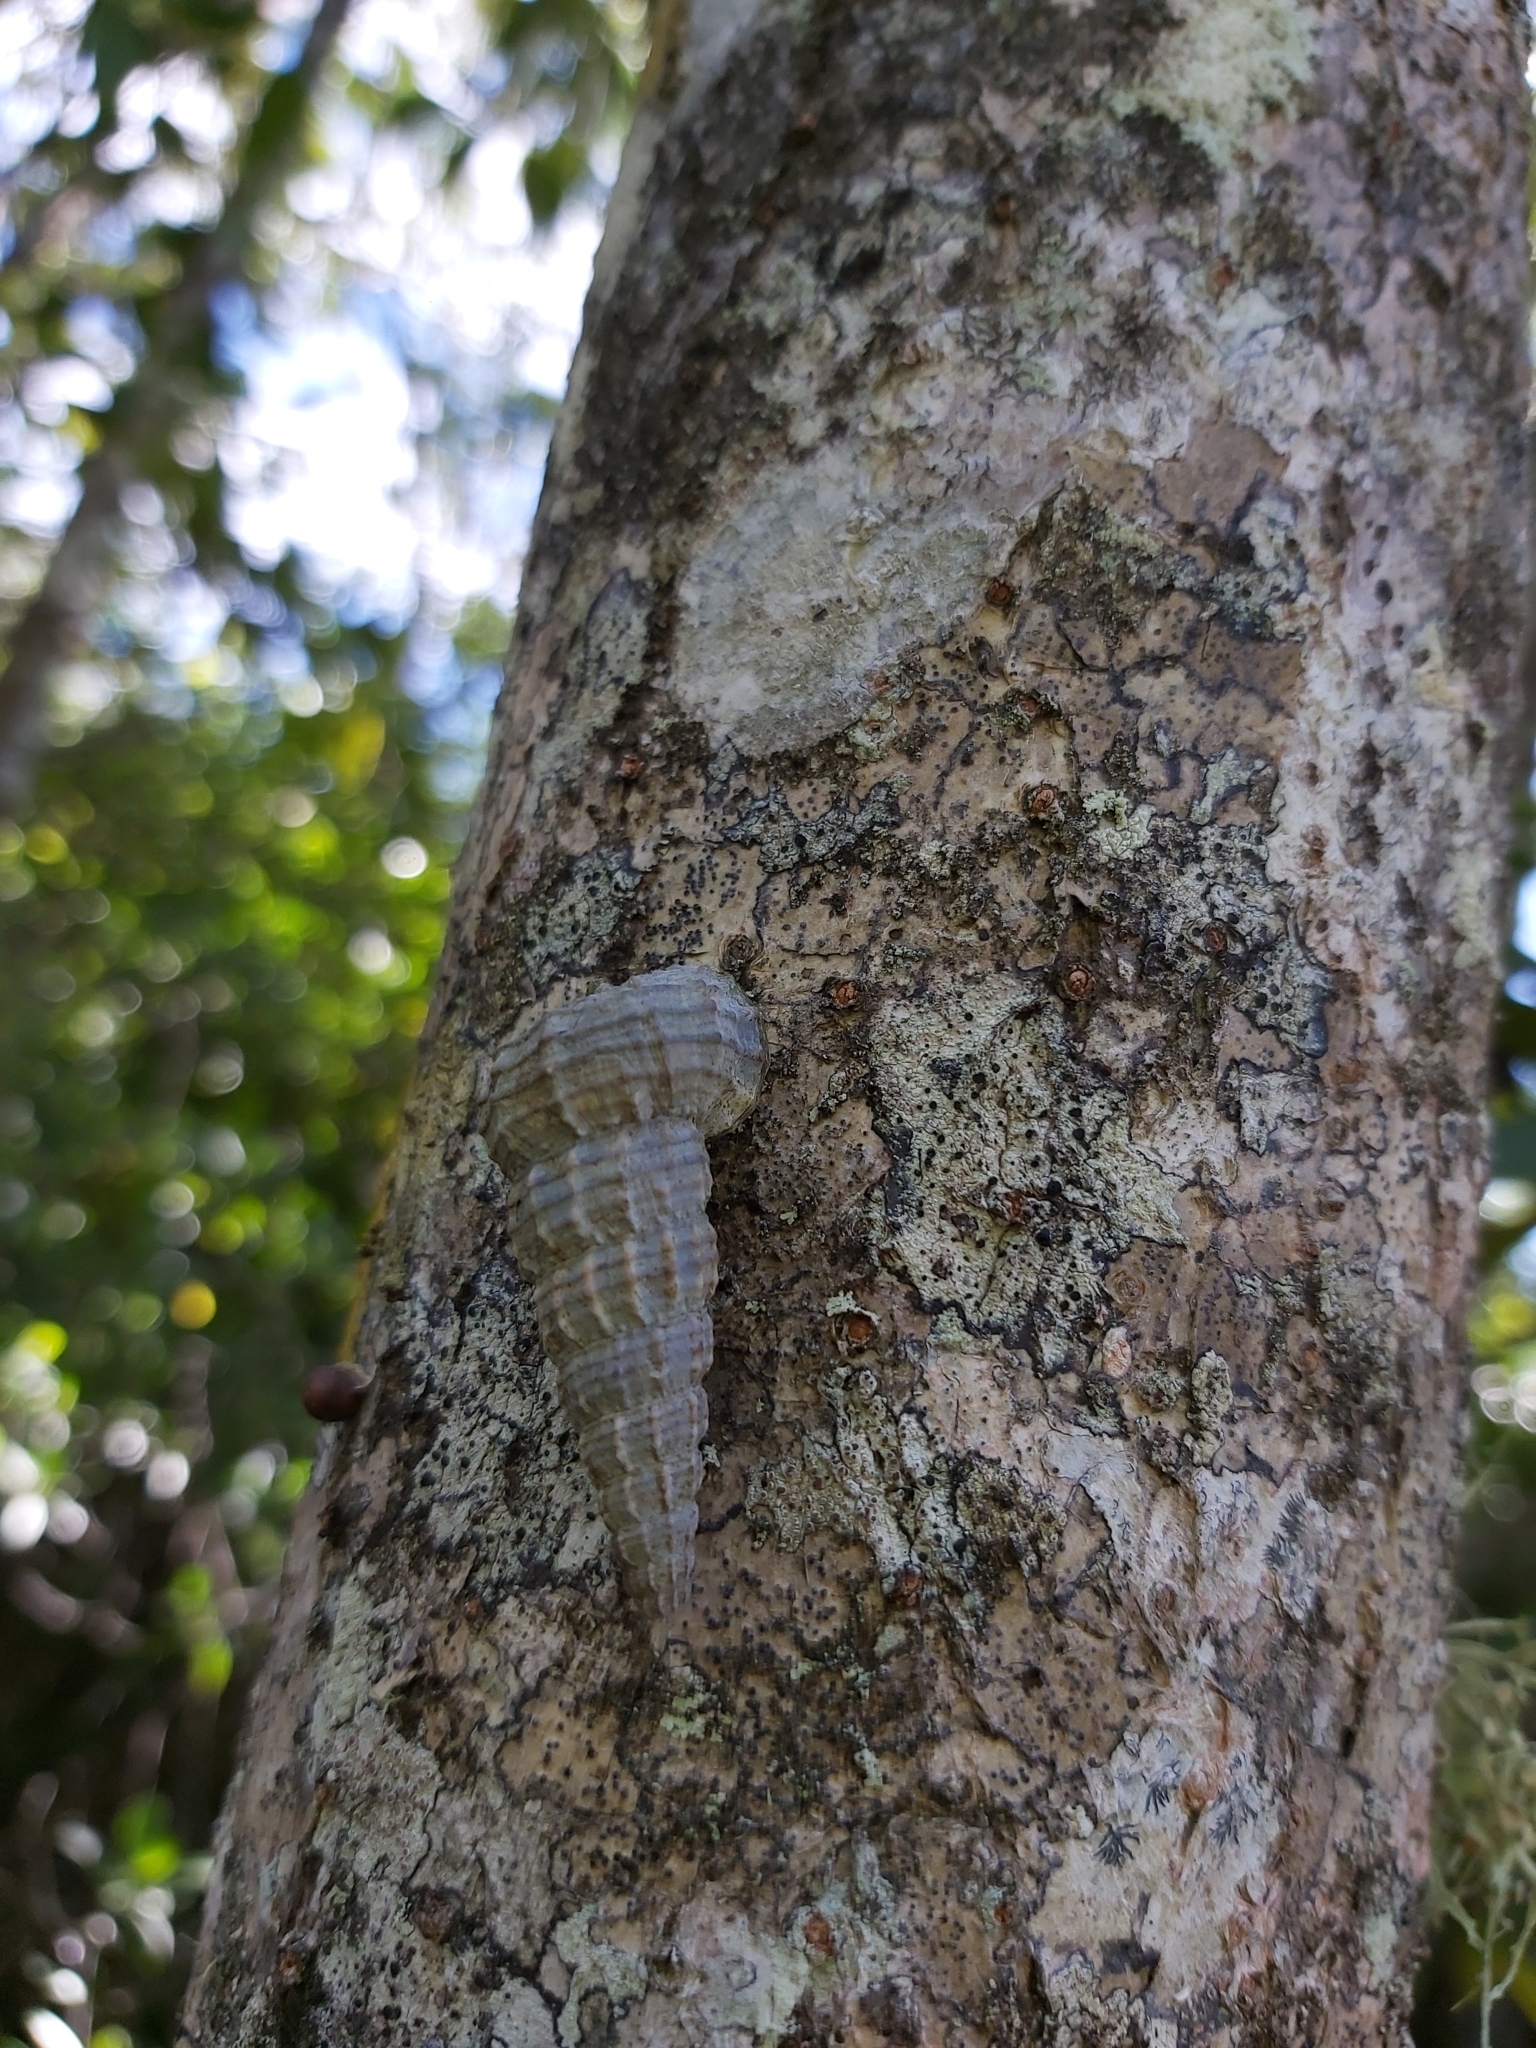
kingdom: Animalia
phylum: Mollusca
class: Gastropoda
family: Potamididae
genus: Cerithidea
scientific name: Cerithidea anticipata
